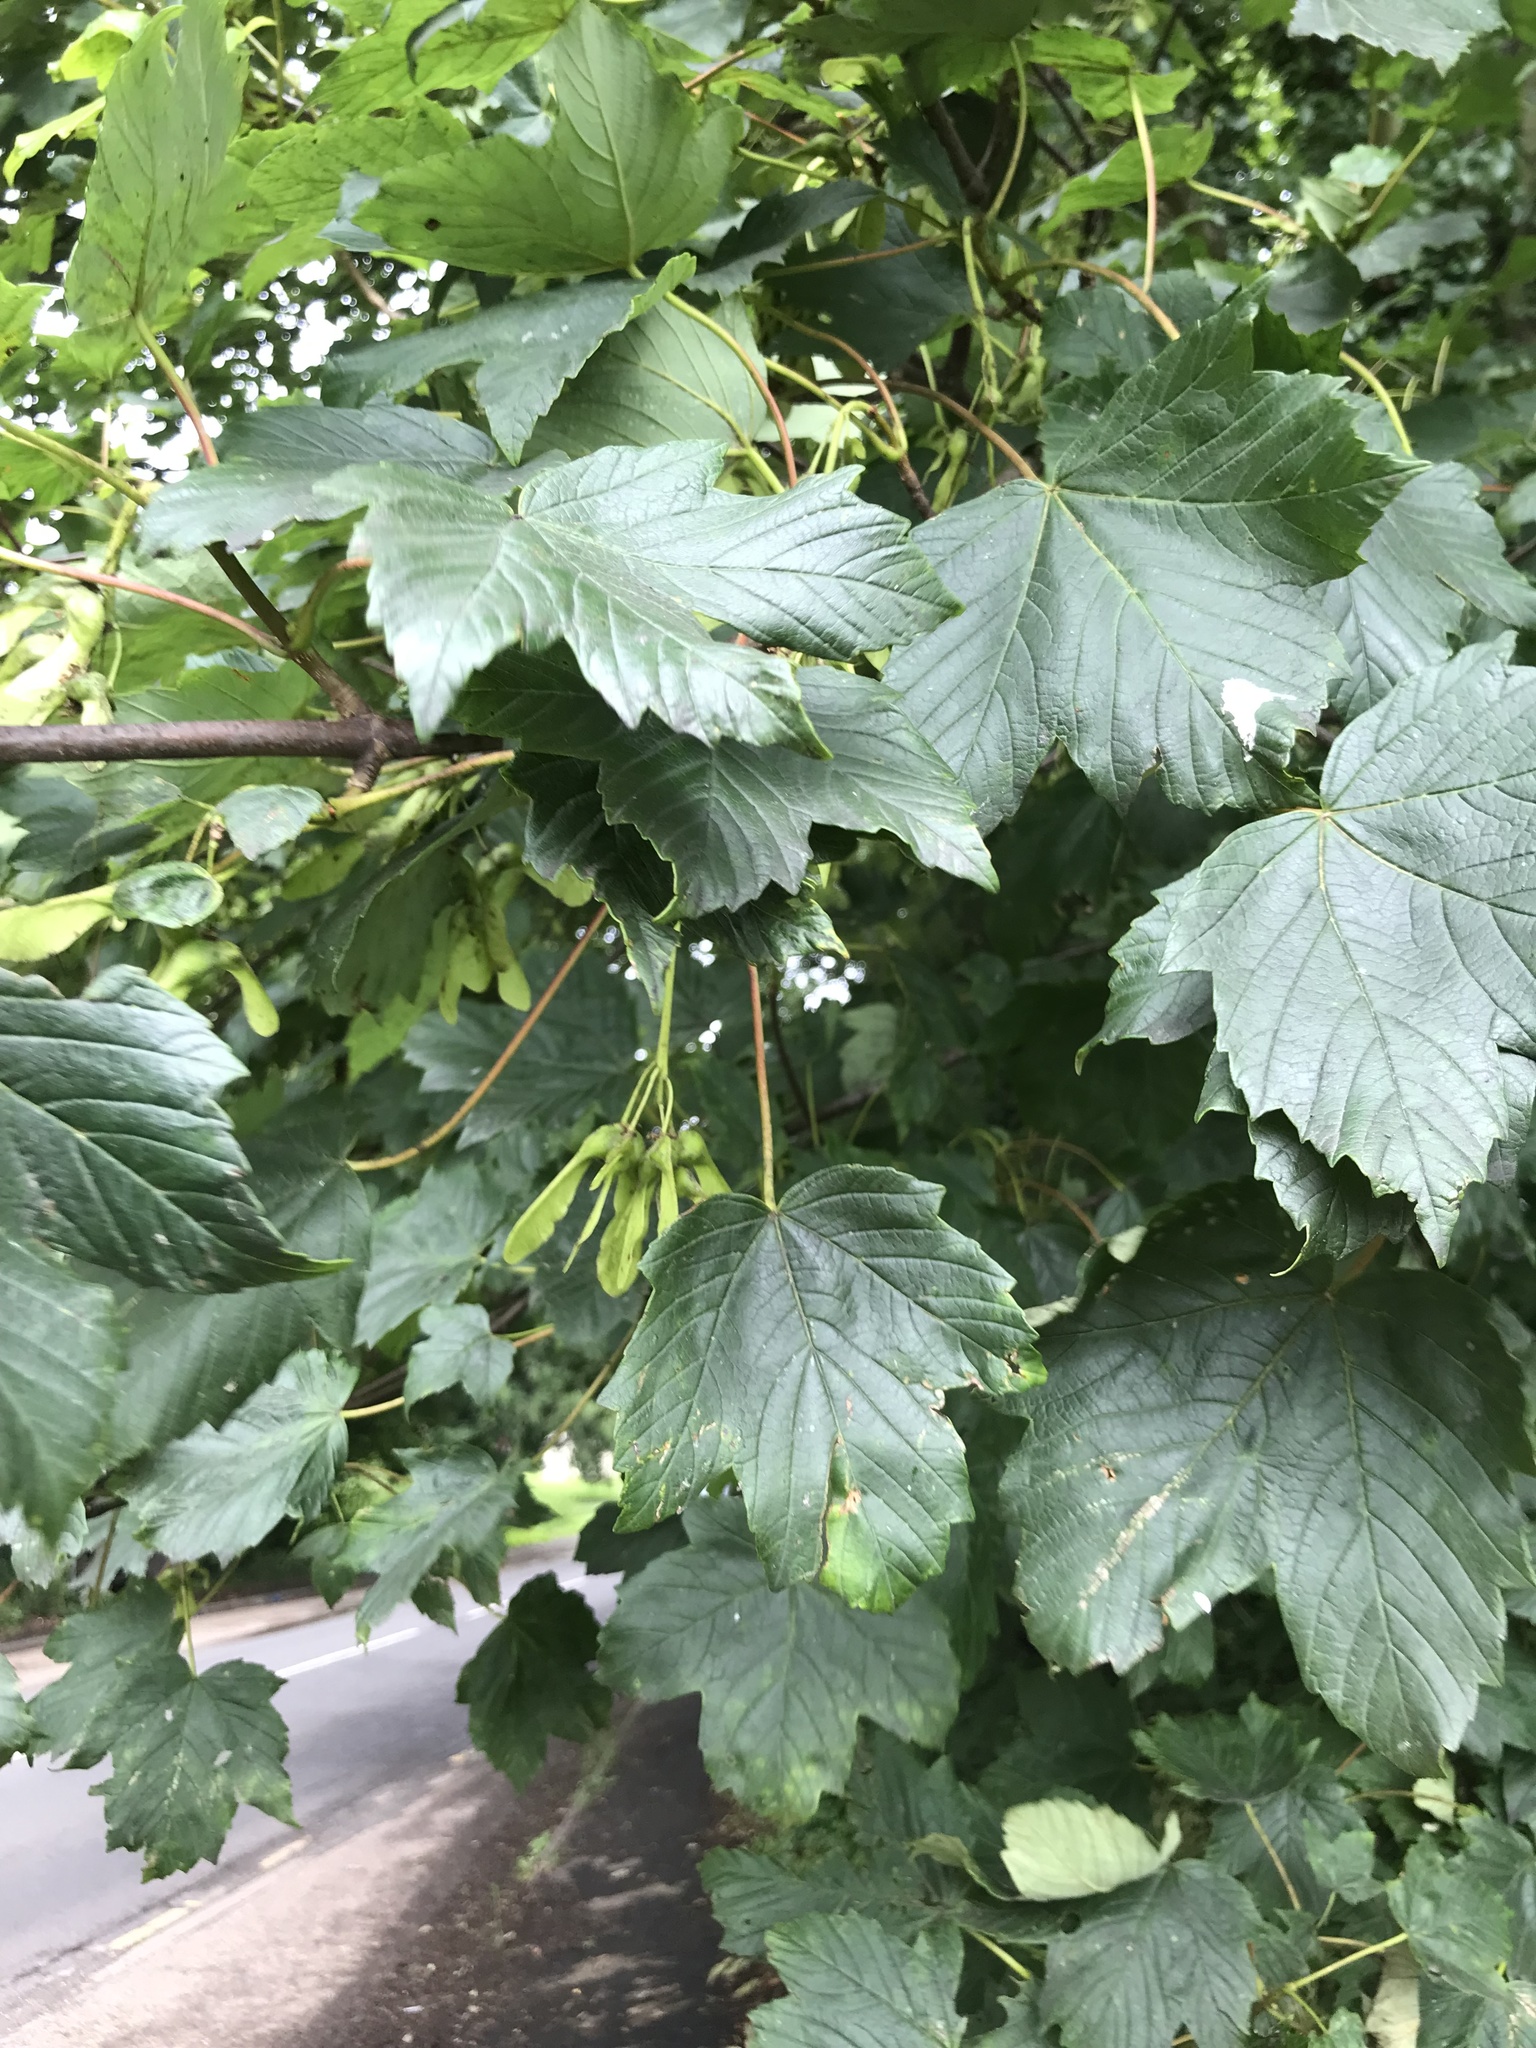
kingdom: Plantae
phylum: Tracheophyta
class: Magnoliopsida
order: Sapindales
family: Sapindaceae
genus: Acer
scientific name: Acer pseudoplatanus
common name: Sycamore
